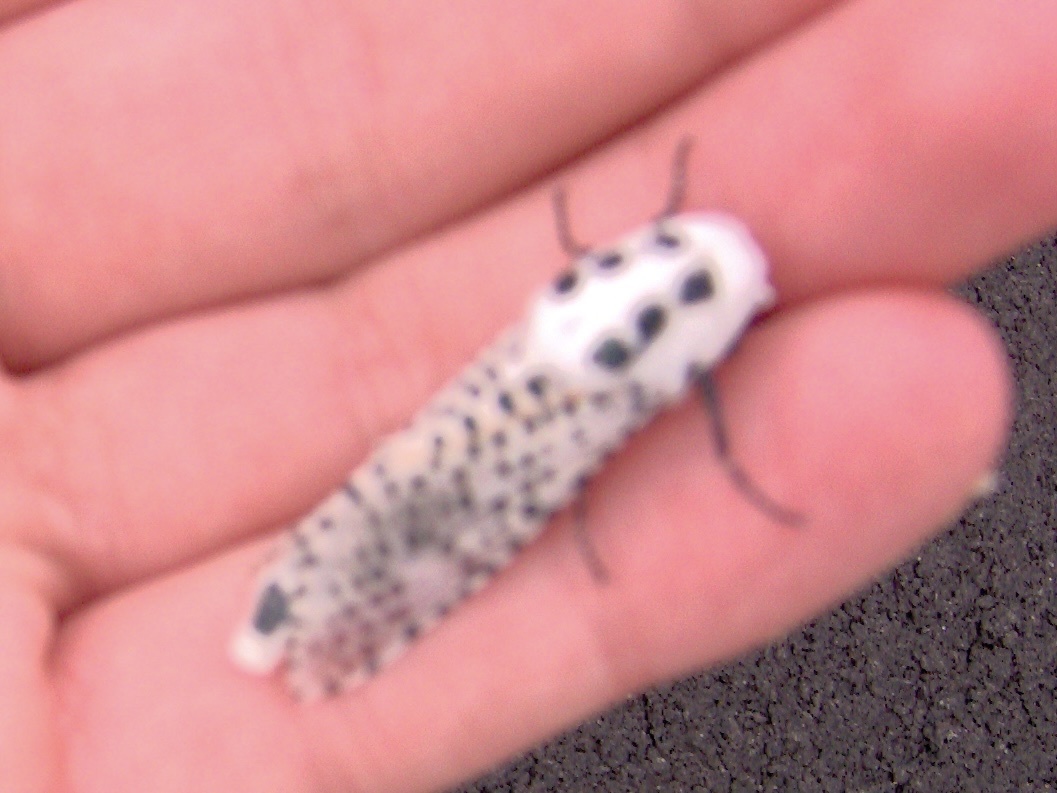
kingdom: Animalia
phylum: Arthropoda
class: Insecta
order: Lepidoptera
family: Cossidae
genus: Zeuzera
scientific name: Zeuzera pyrina
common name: Leopard moth
